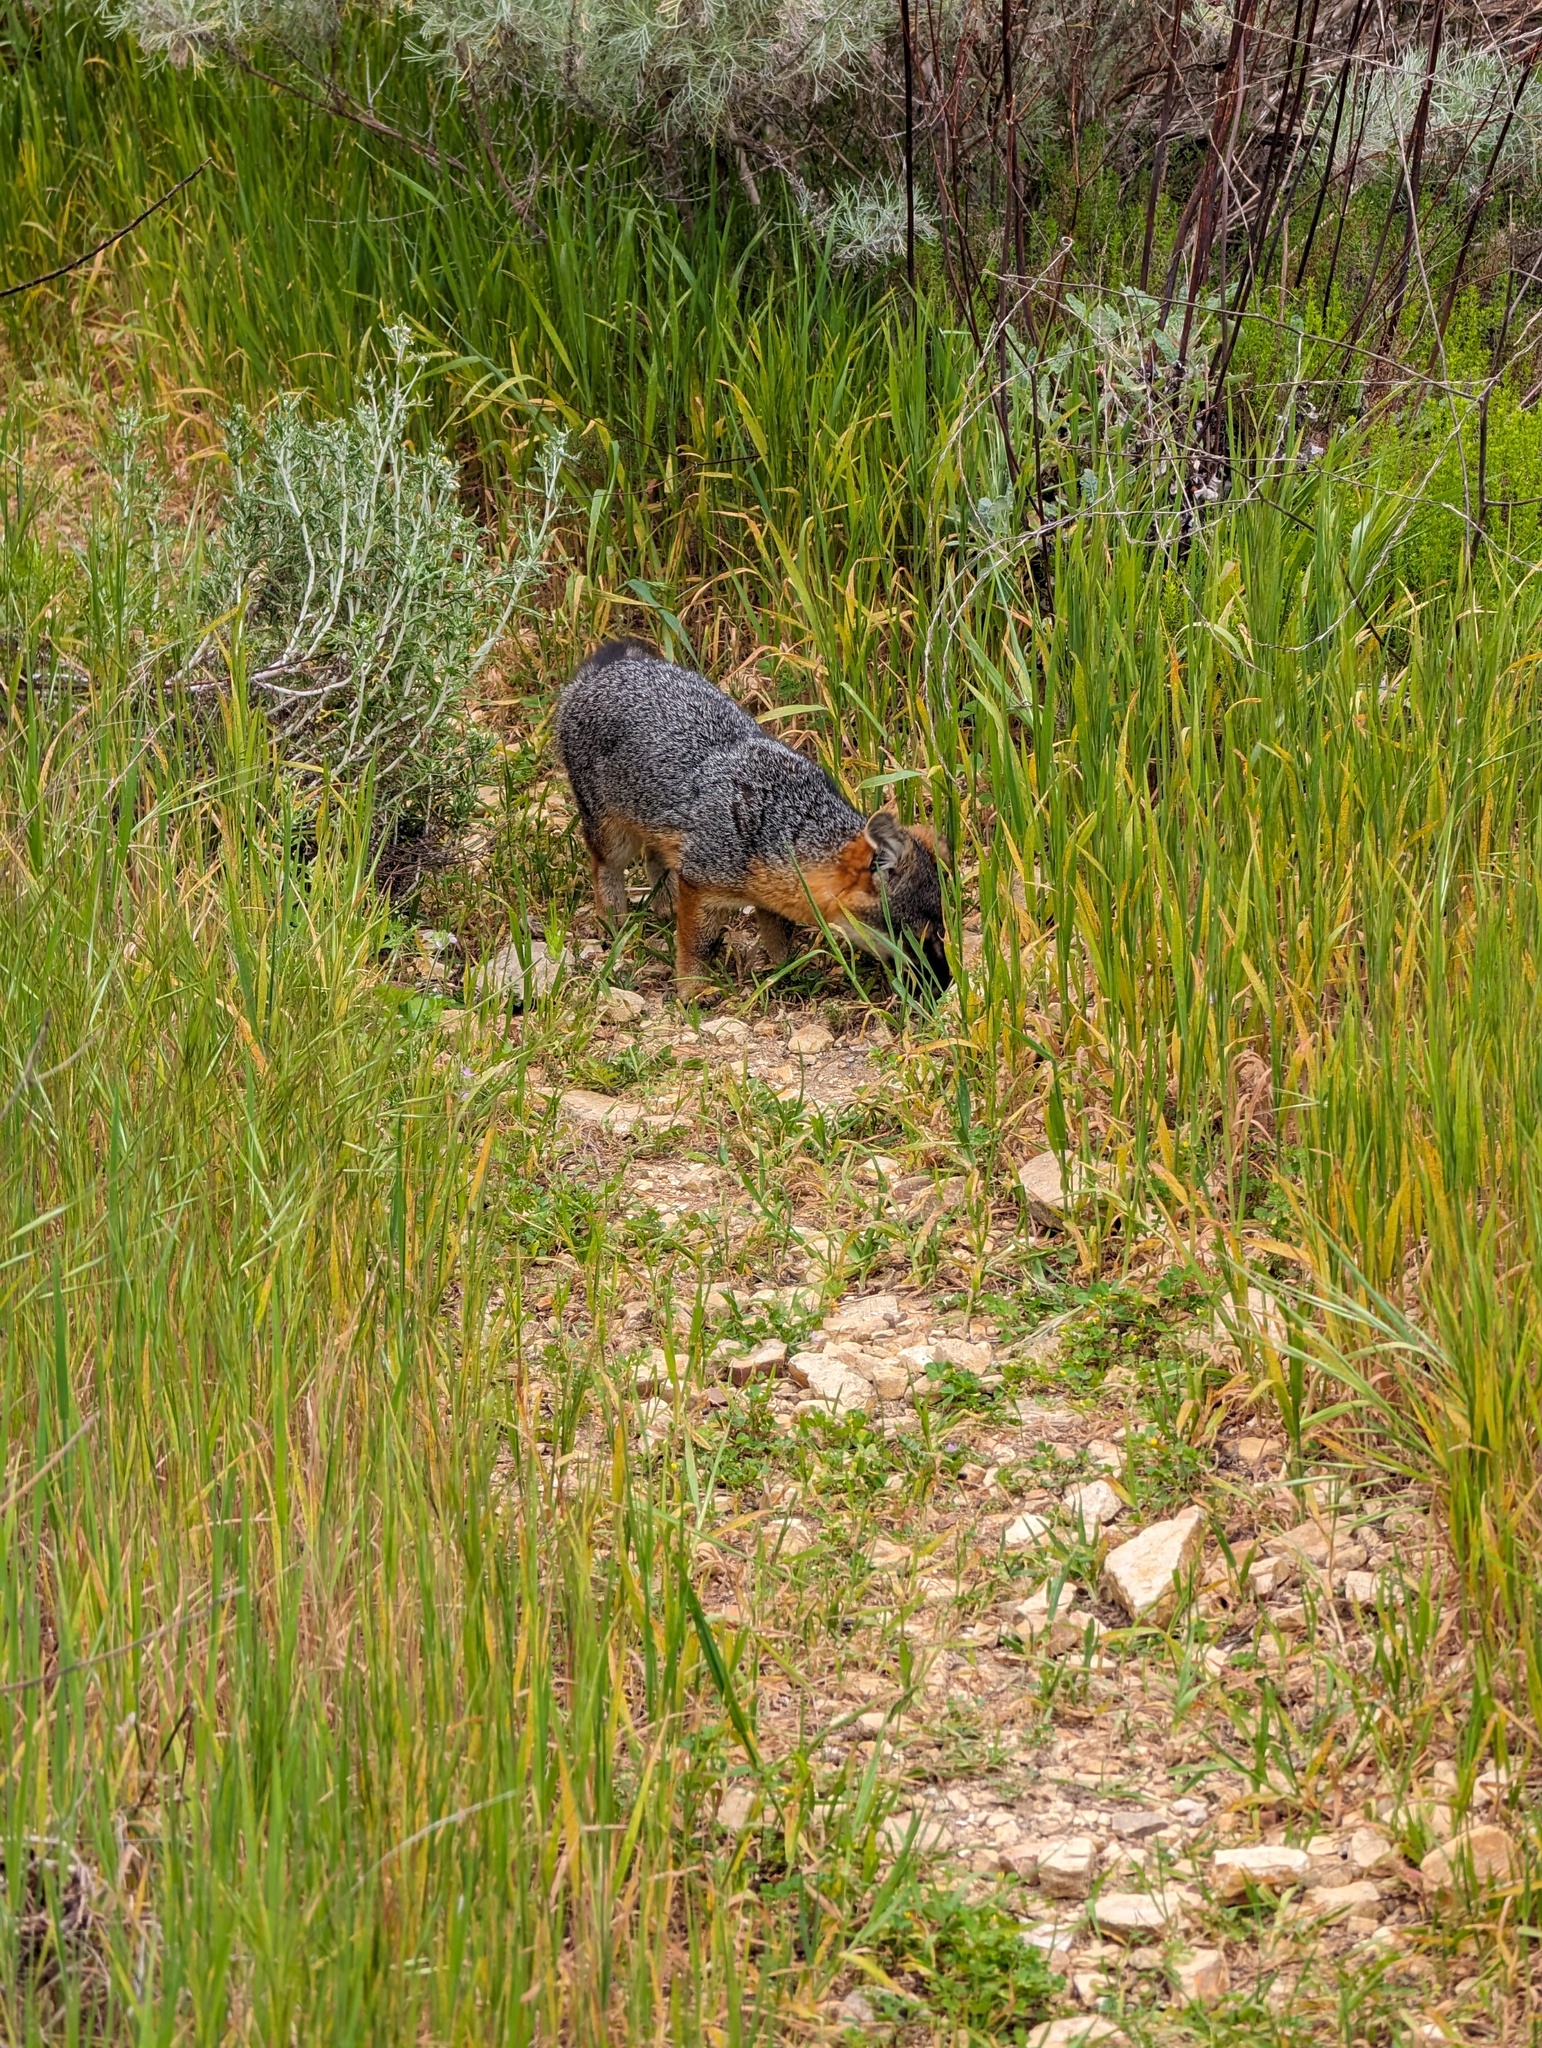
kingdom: Animalia
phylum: Chordata
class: Mammalia
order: Carnivora
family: Canidae
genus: Urocyon
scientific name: Urocyon littoralis
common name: Island gray fox
